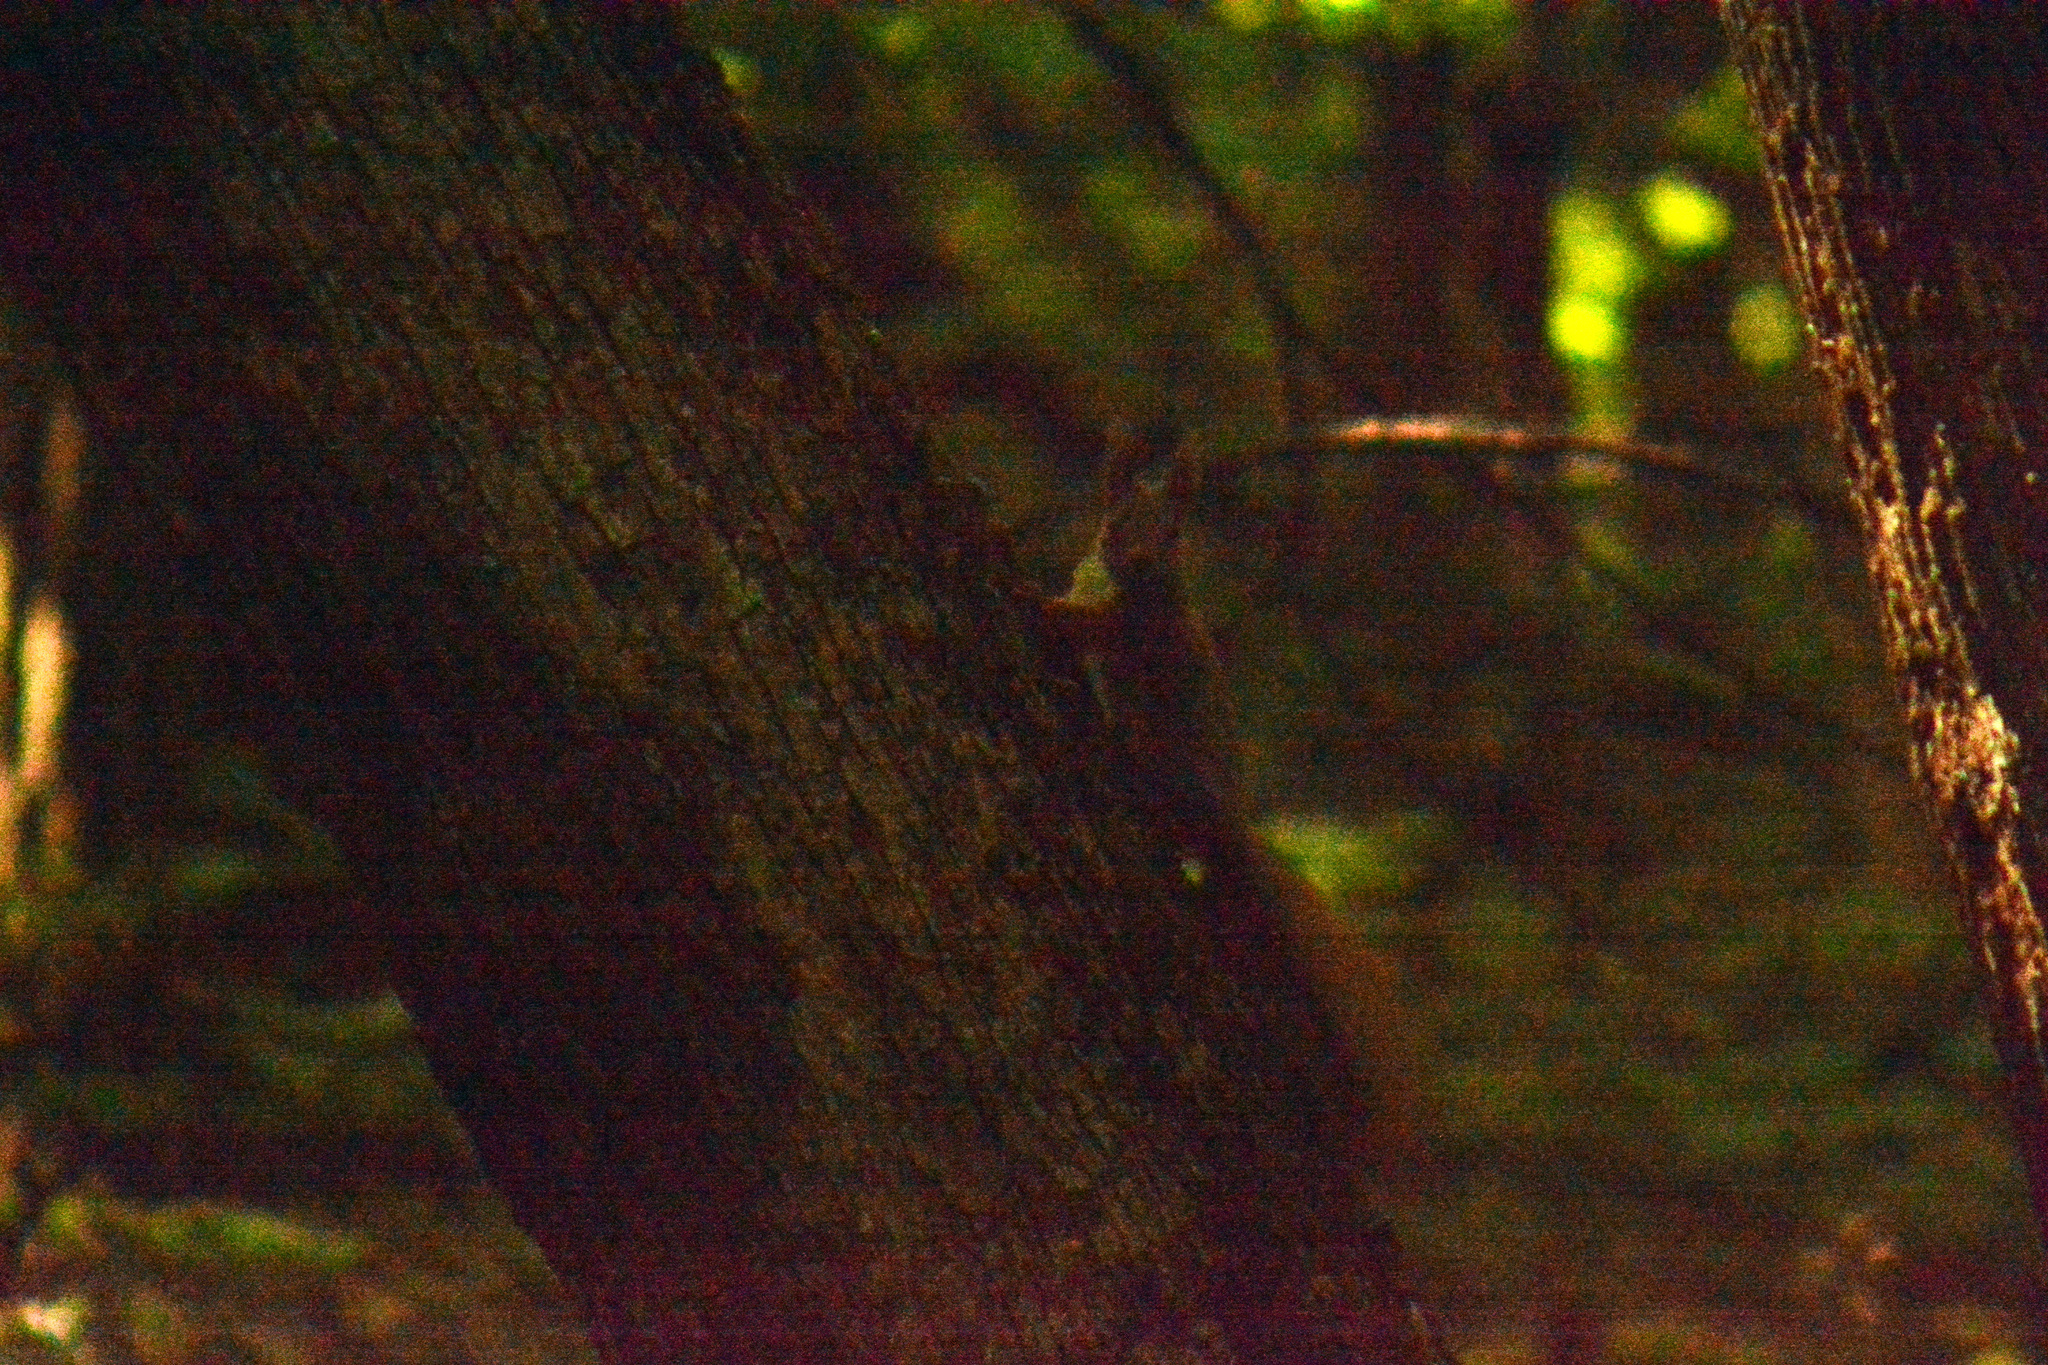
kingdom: Animalia
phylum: Chordata
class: Mammalia
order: Rodentia
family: Sciuridae
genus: Sciurus
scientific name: Sciurus vulgaris
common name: Eurasian red squirrel
